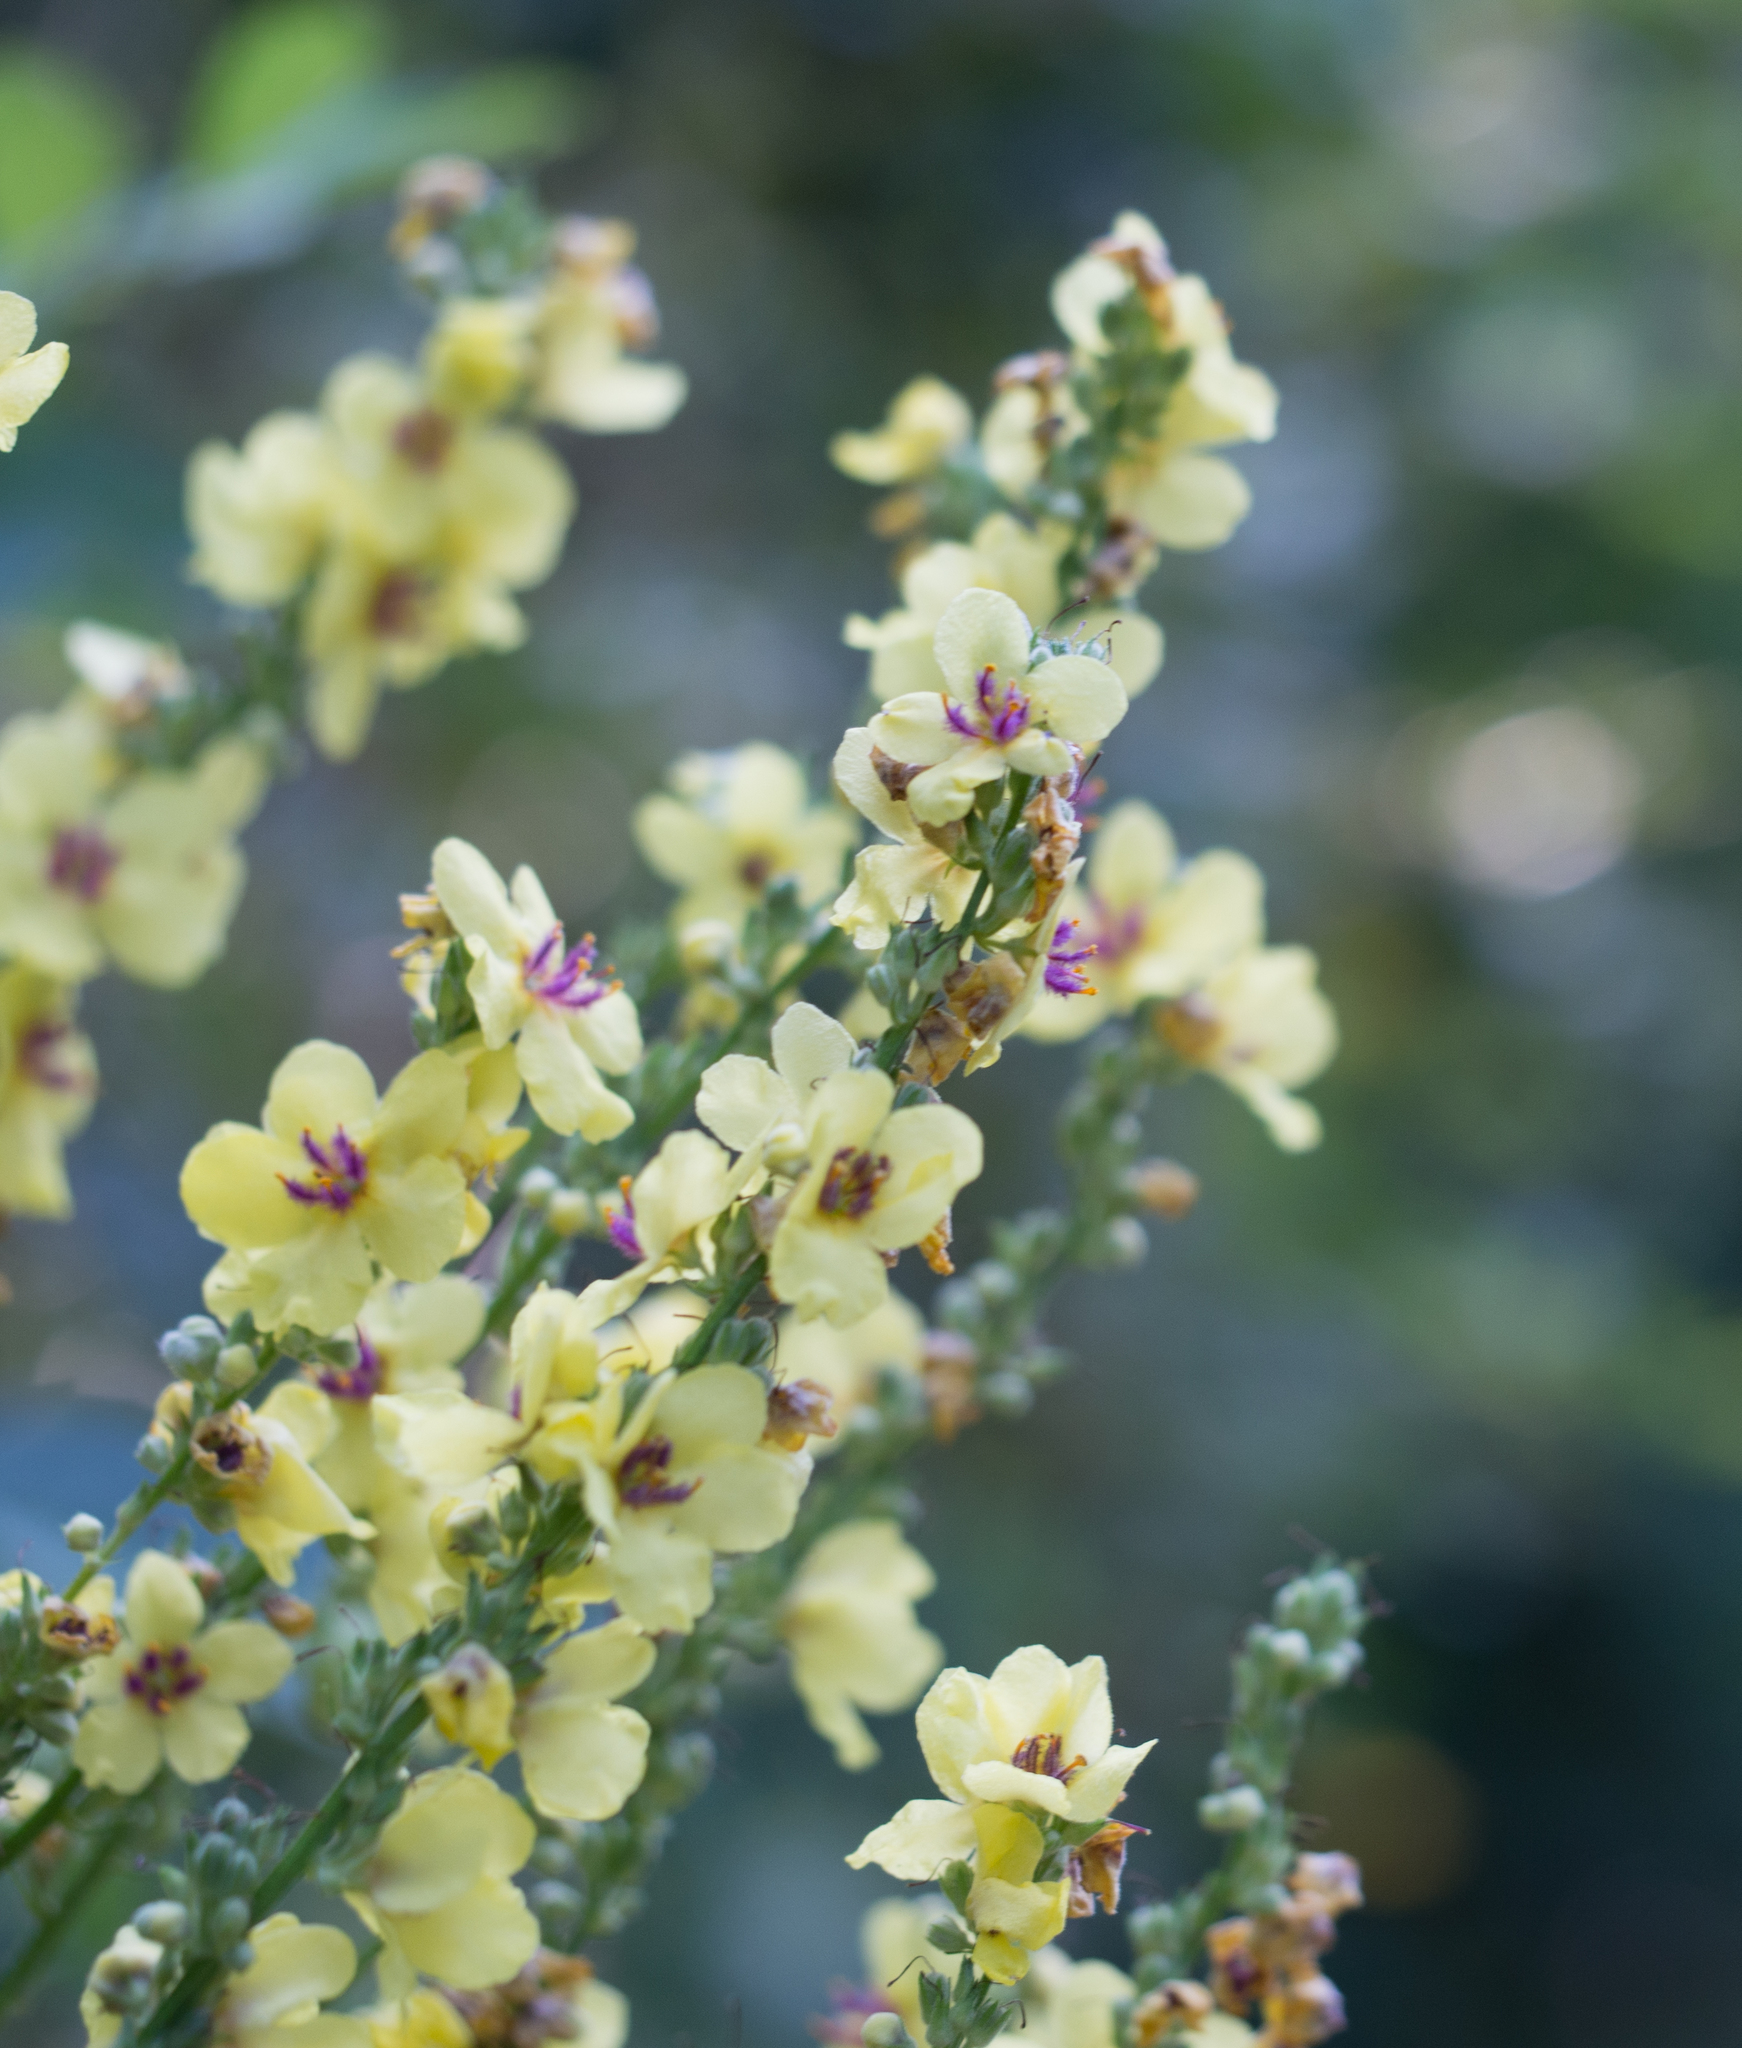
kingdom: Plantae
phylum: Tracheophyta
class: Magnoliopsida
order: Lamiales
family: Scrophulariaceae
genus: Verbascum
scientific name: Verbascum nigrum
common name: Dark mullein
